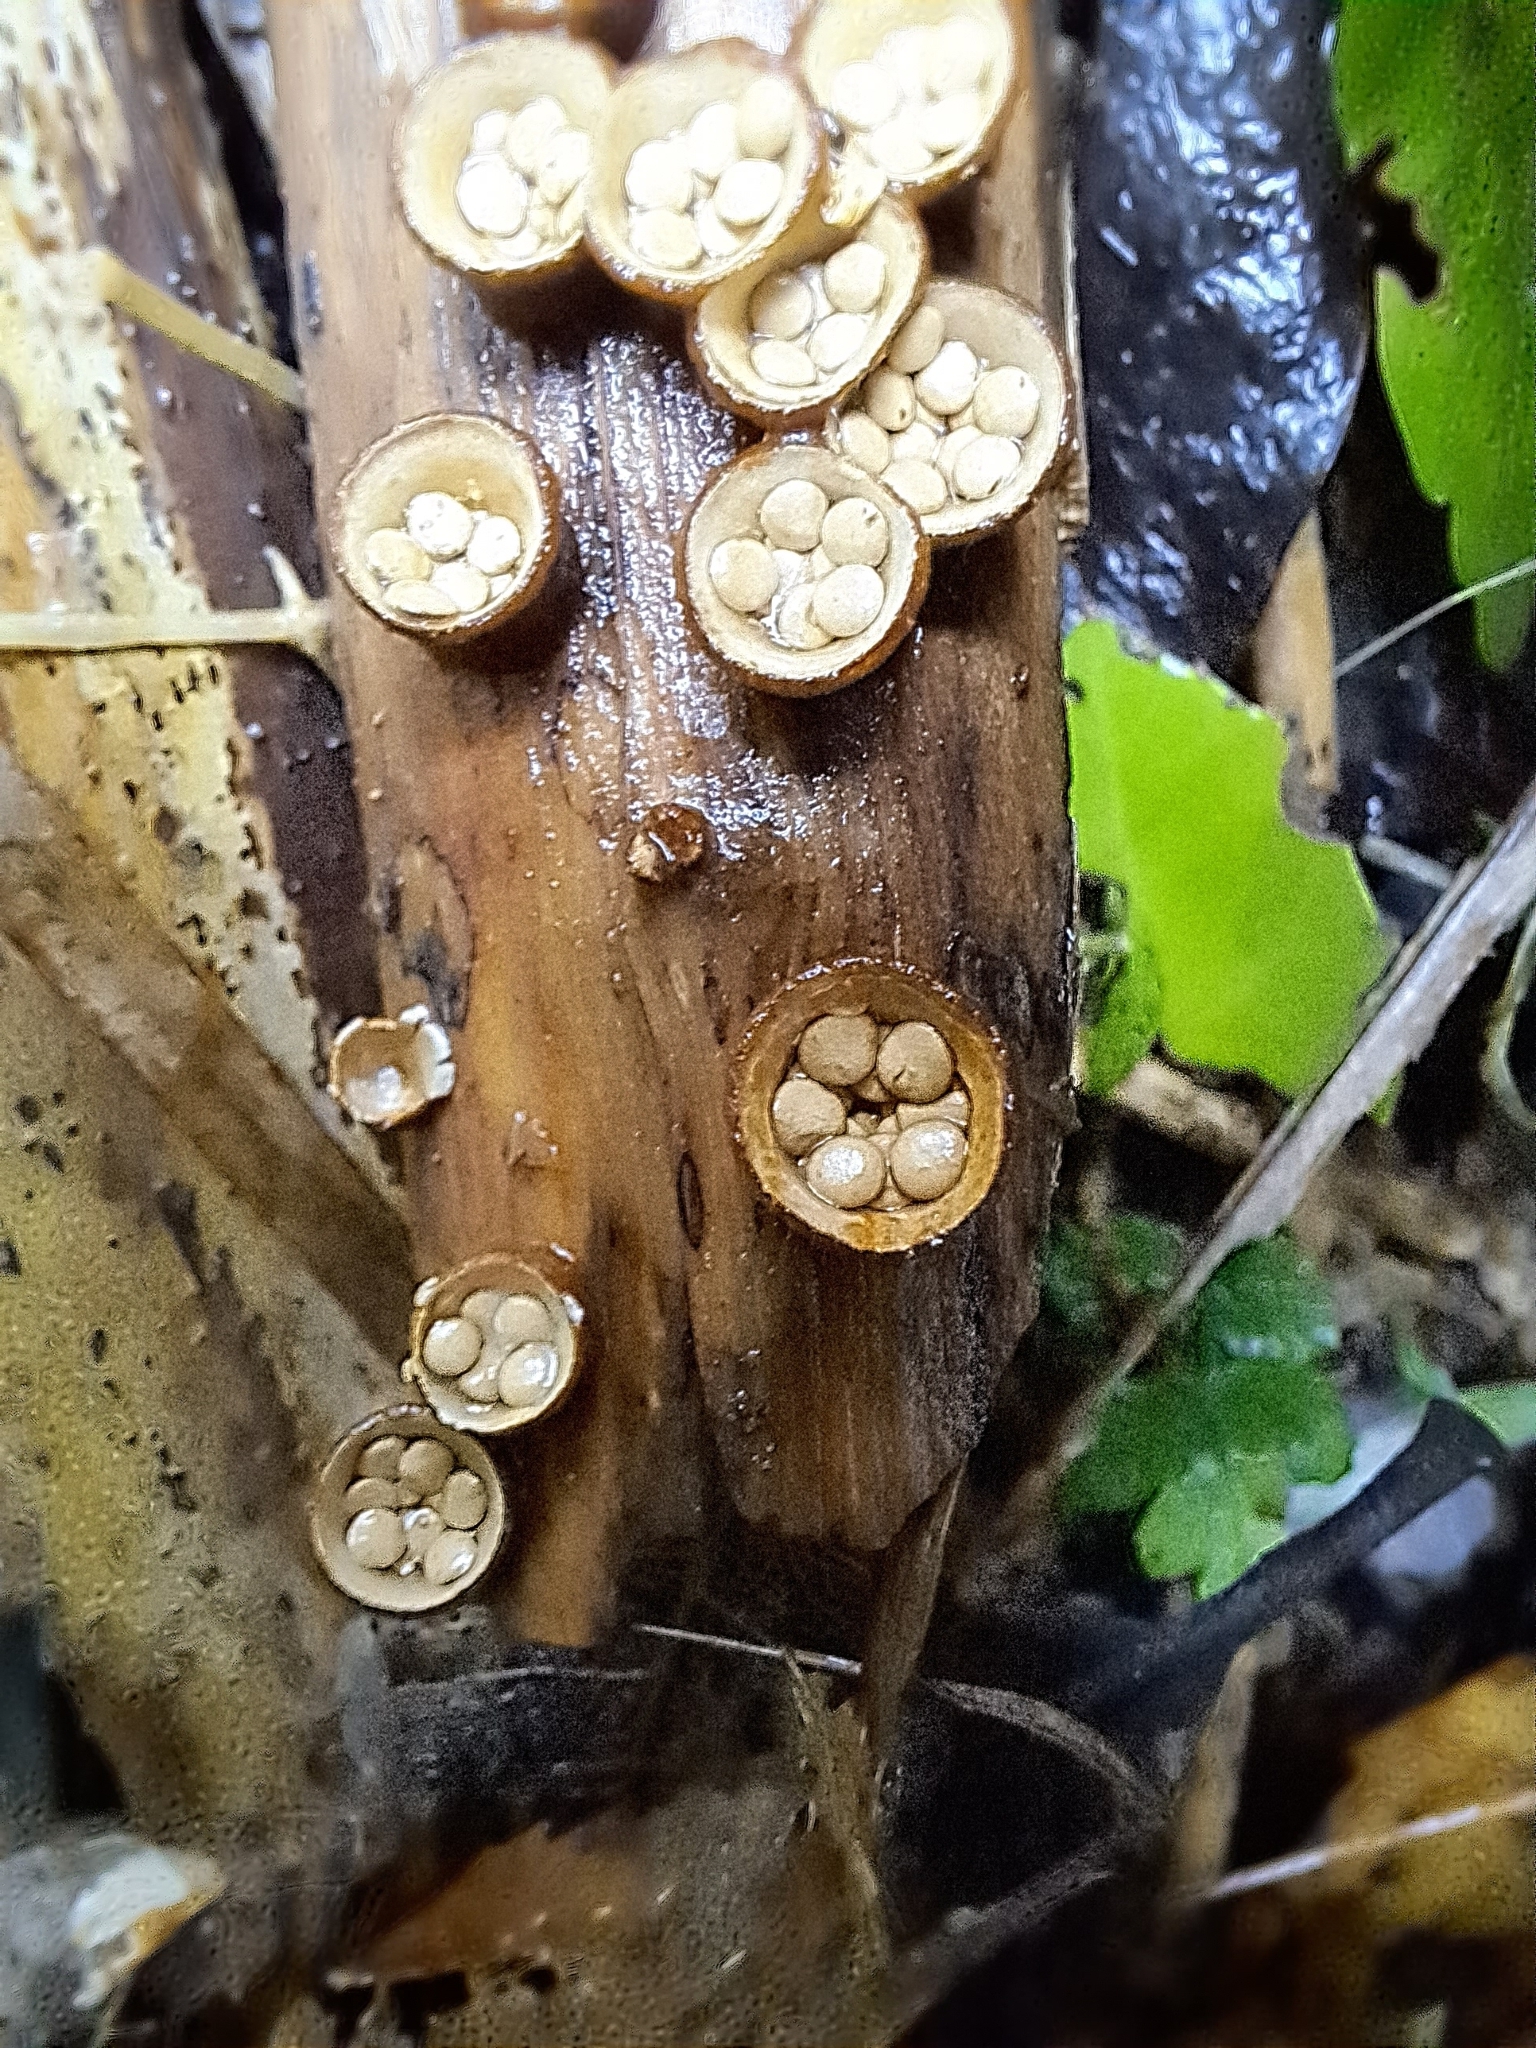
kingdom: Fungi
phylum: Basidiomycota
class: Agaricomycetes
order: Agaricales
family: Nidulariaceae
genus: Crucibulum
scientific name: Crucibulum simile
